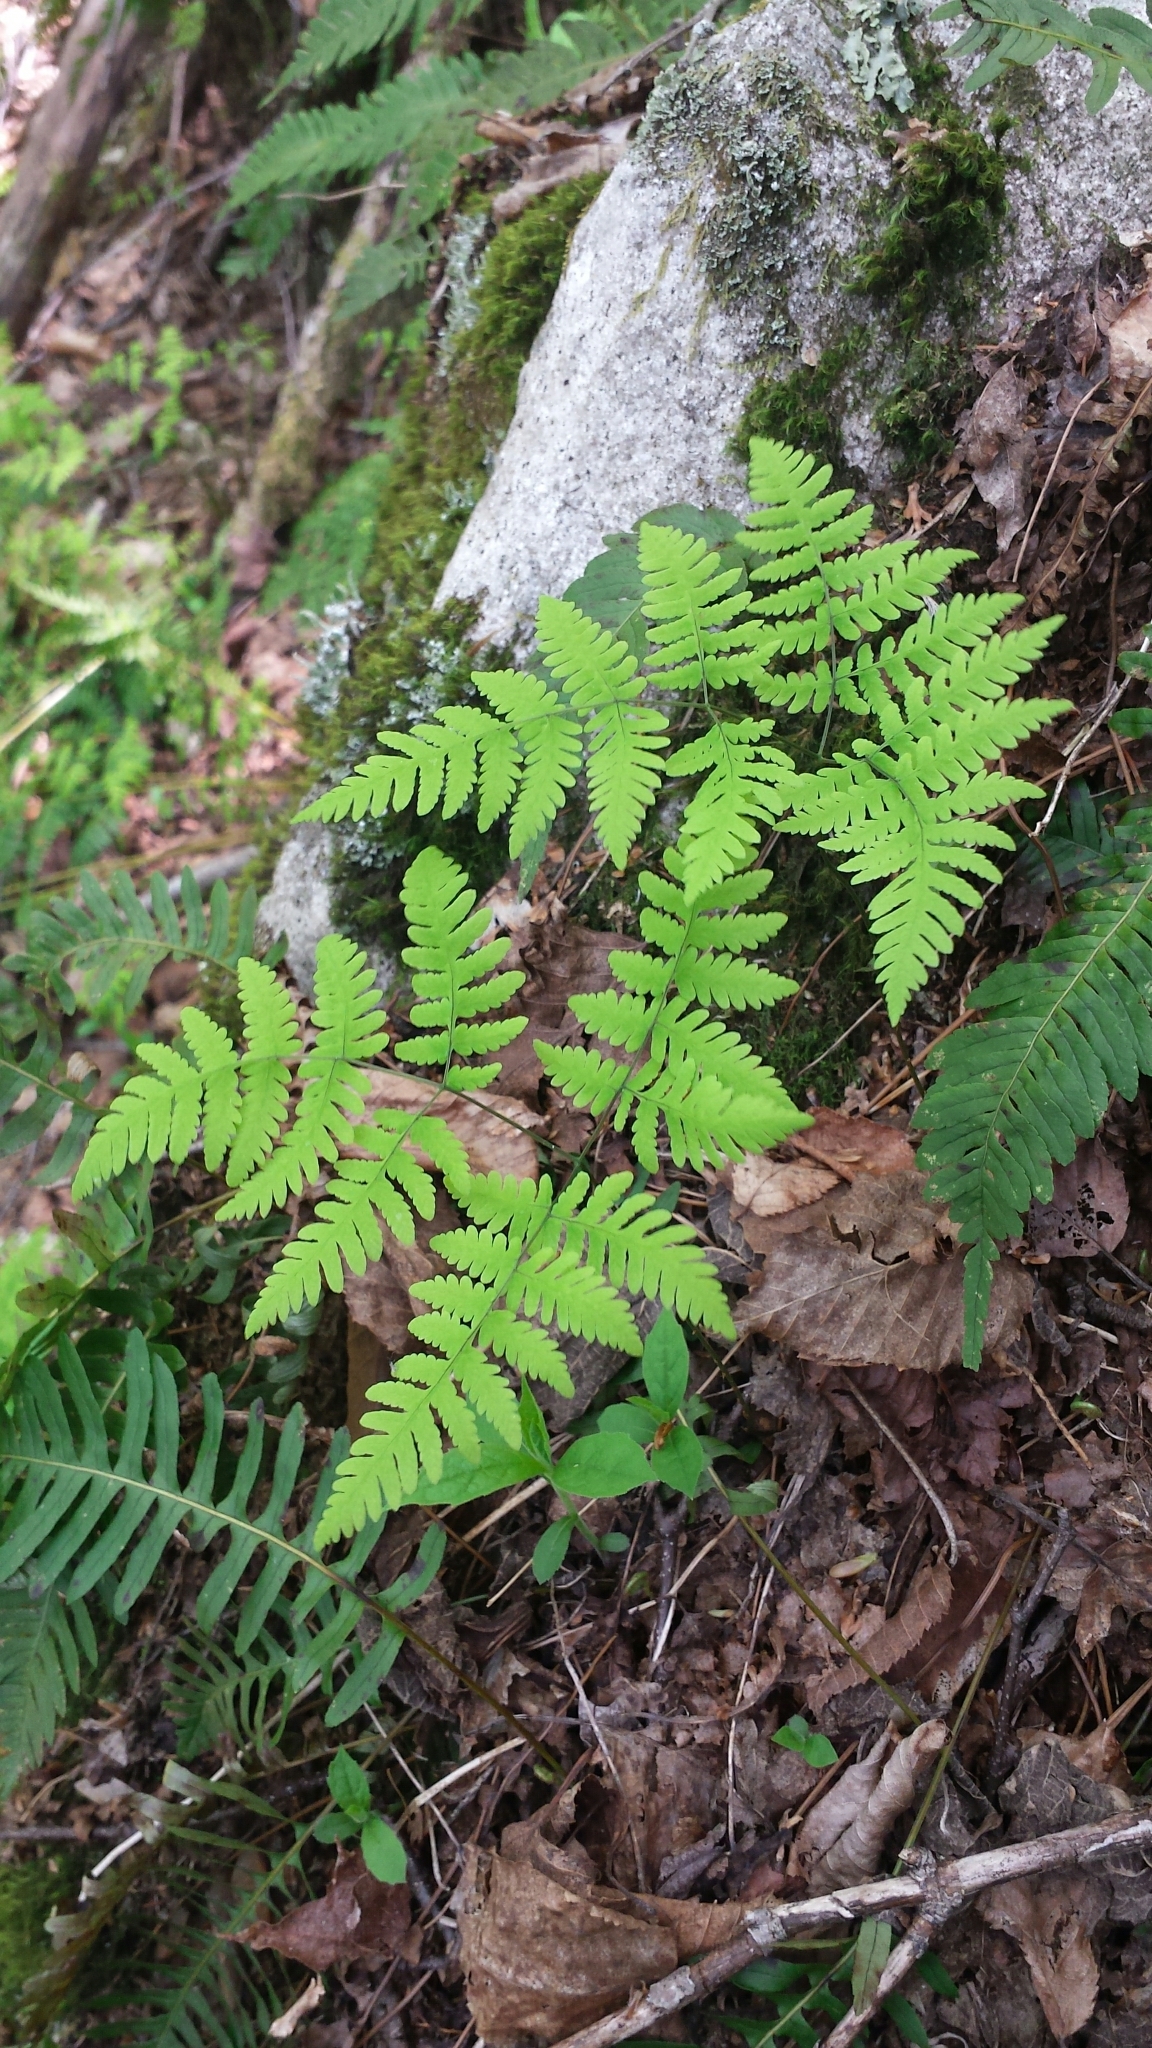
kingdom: Plantae
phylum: Tracheophyta
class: Polypodiopsida
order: Polypodiales
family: Cystopteridaceae
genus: Gymnocarpium
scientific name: Gymnocarpium dryopteris
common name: Oak fern
